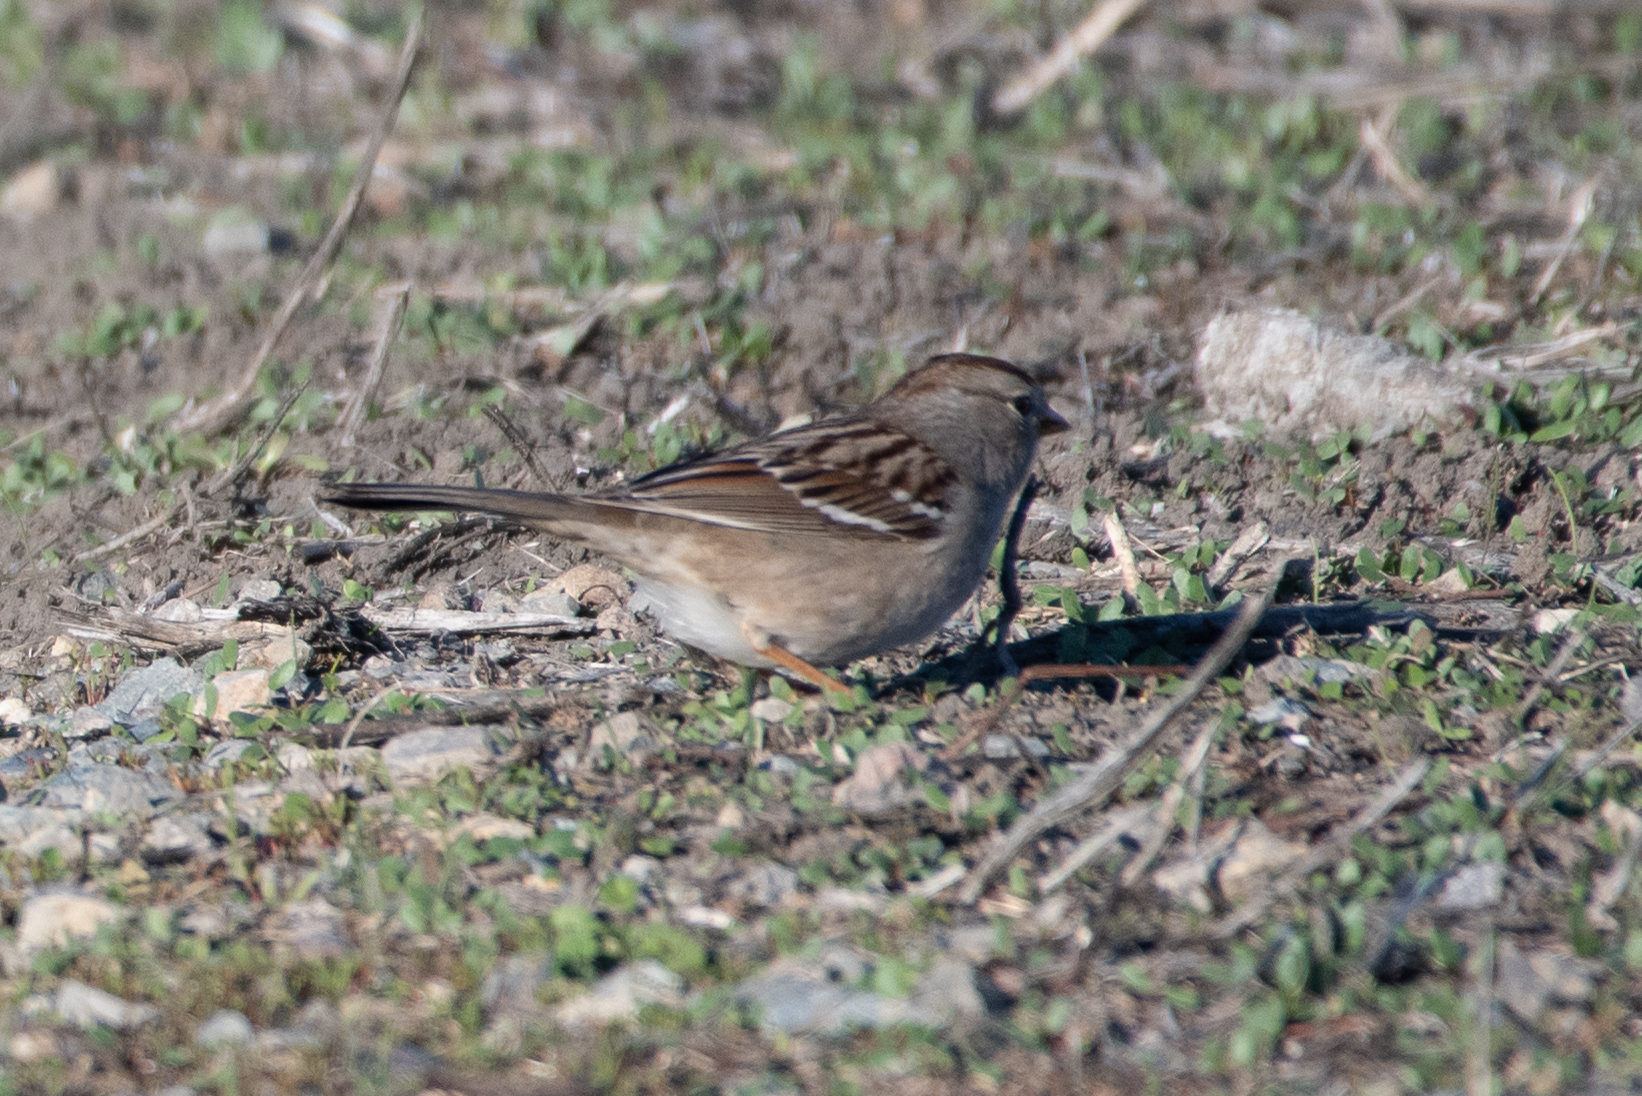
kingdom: Animalia
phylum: Chordata
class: Aves
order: Passeriformes
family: Passerellidae
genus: Zonotrichia
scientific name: Zonotrichia leucophrys
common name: White-crowned sparrow
